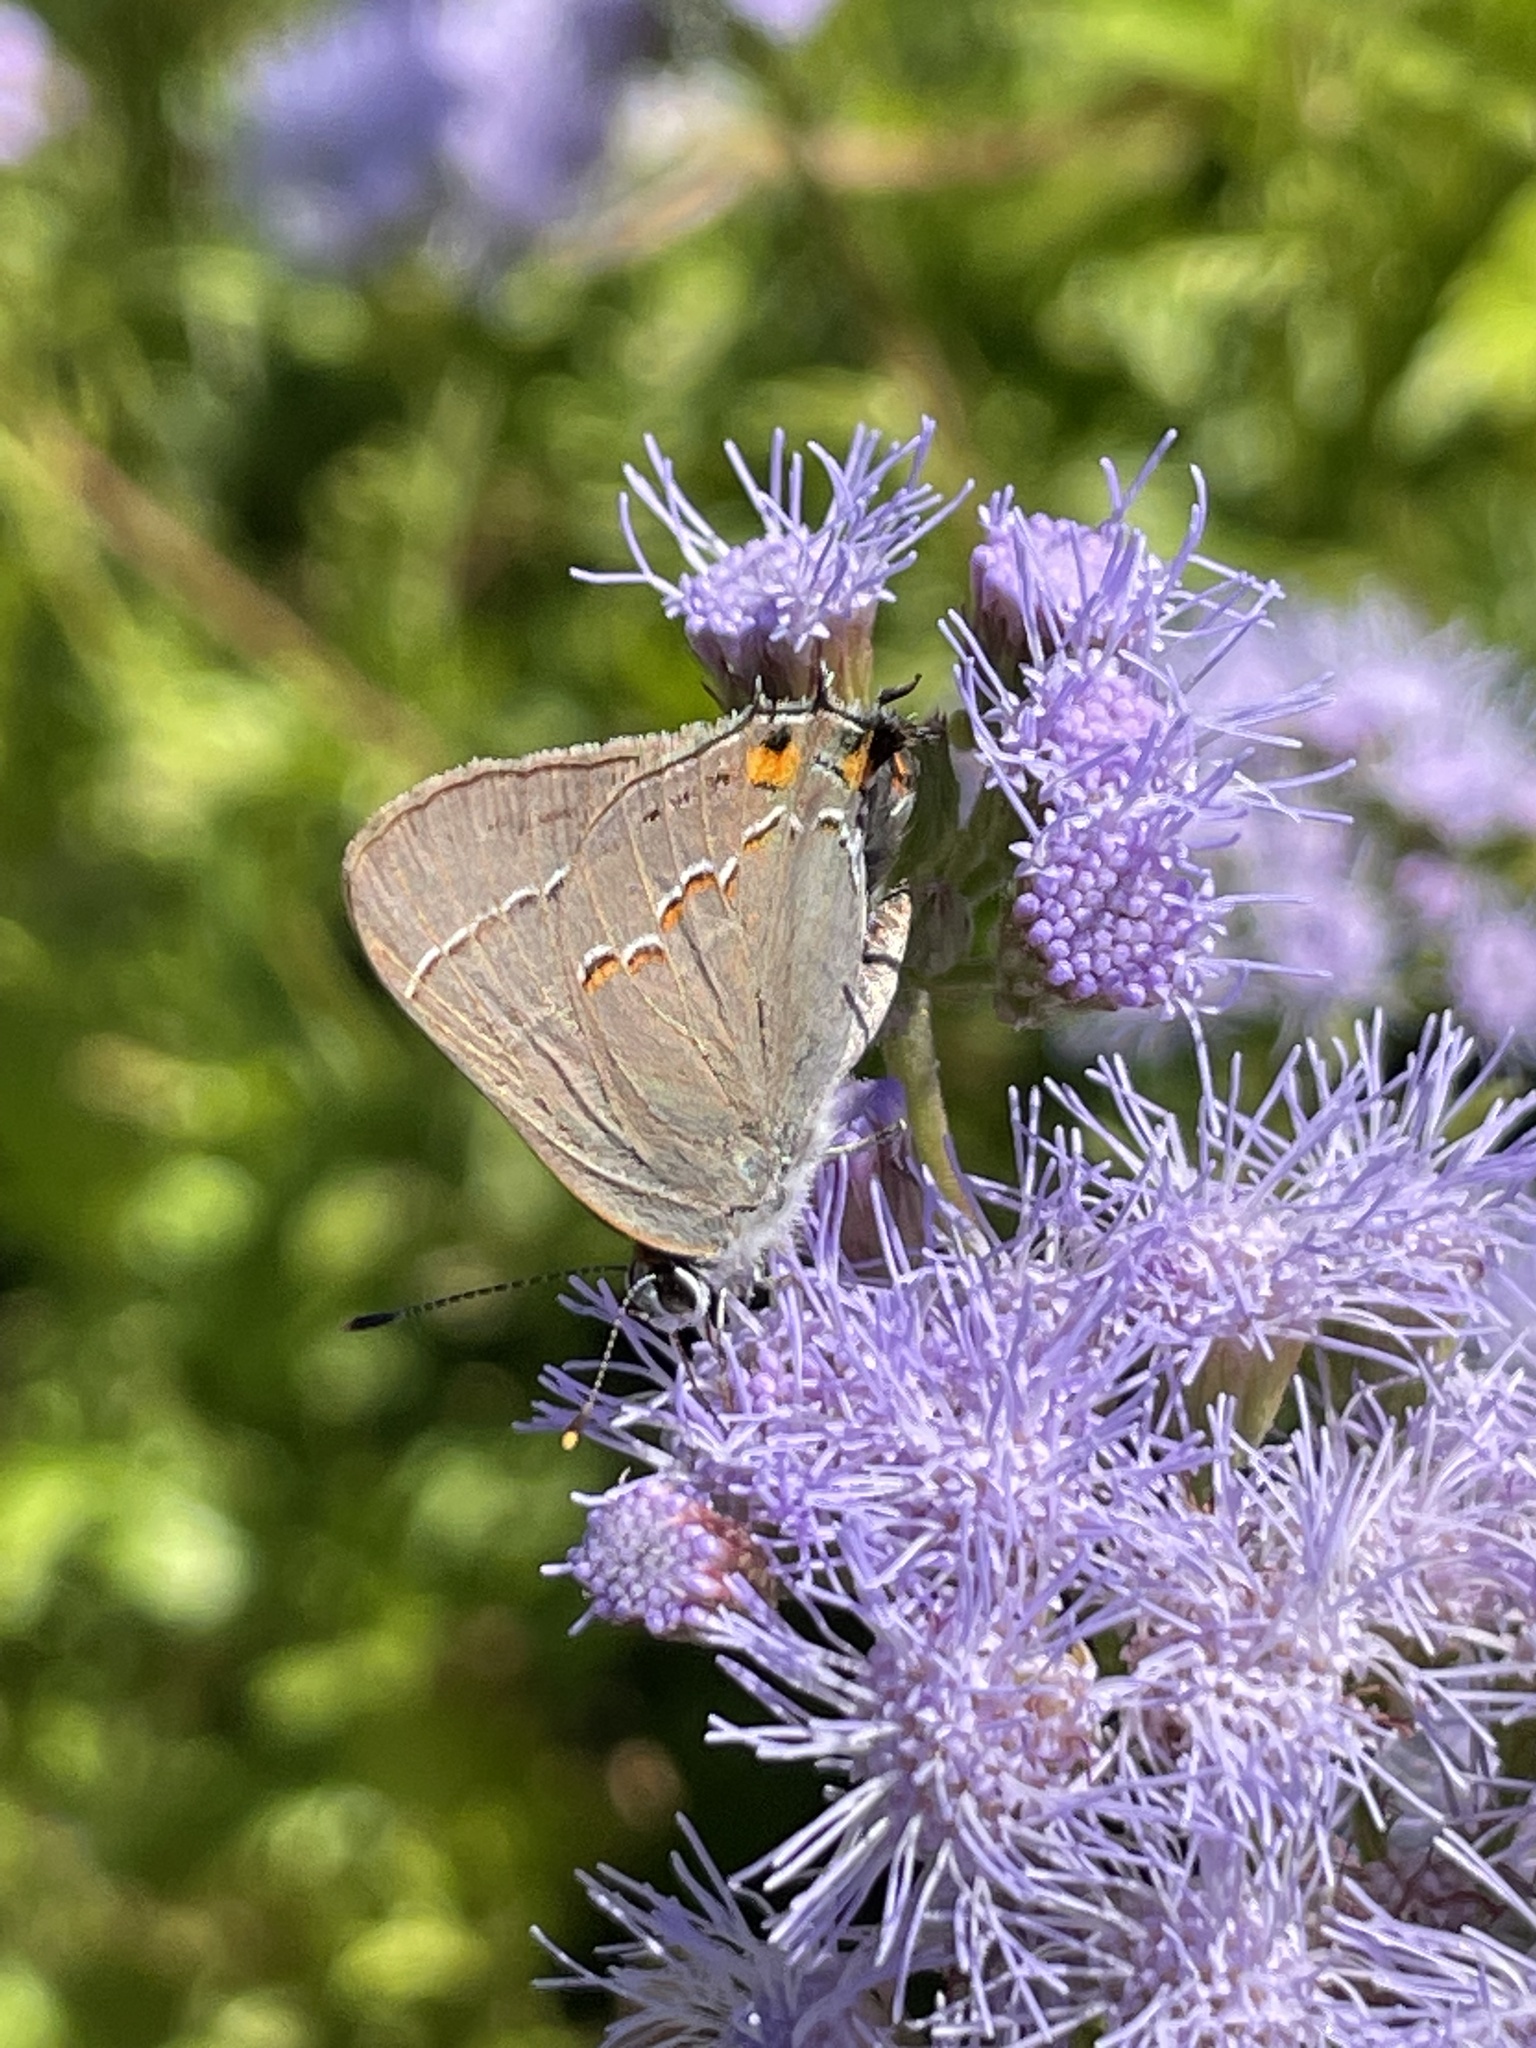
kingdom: Animalia
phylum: Arthropoda
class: Insecta
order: Lepidoptera
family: Lycaenidae
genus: Strymon
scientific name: Strymon melinus
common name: Gray hairstreak
